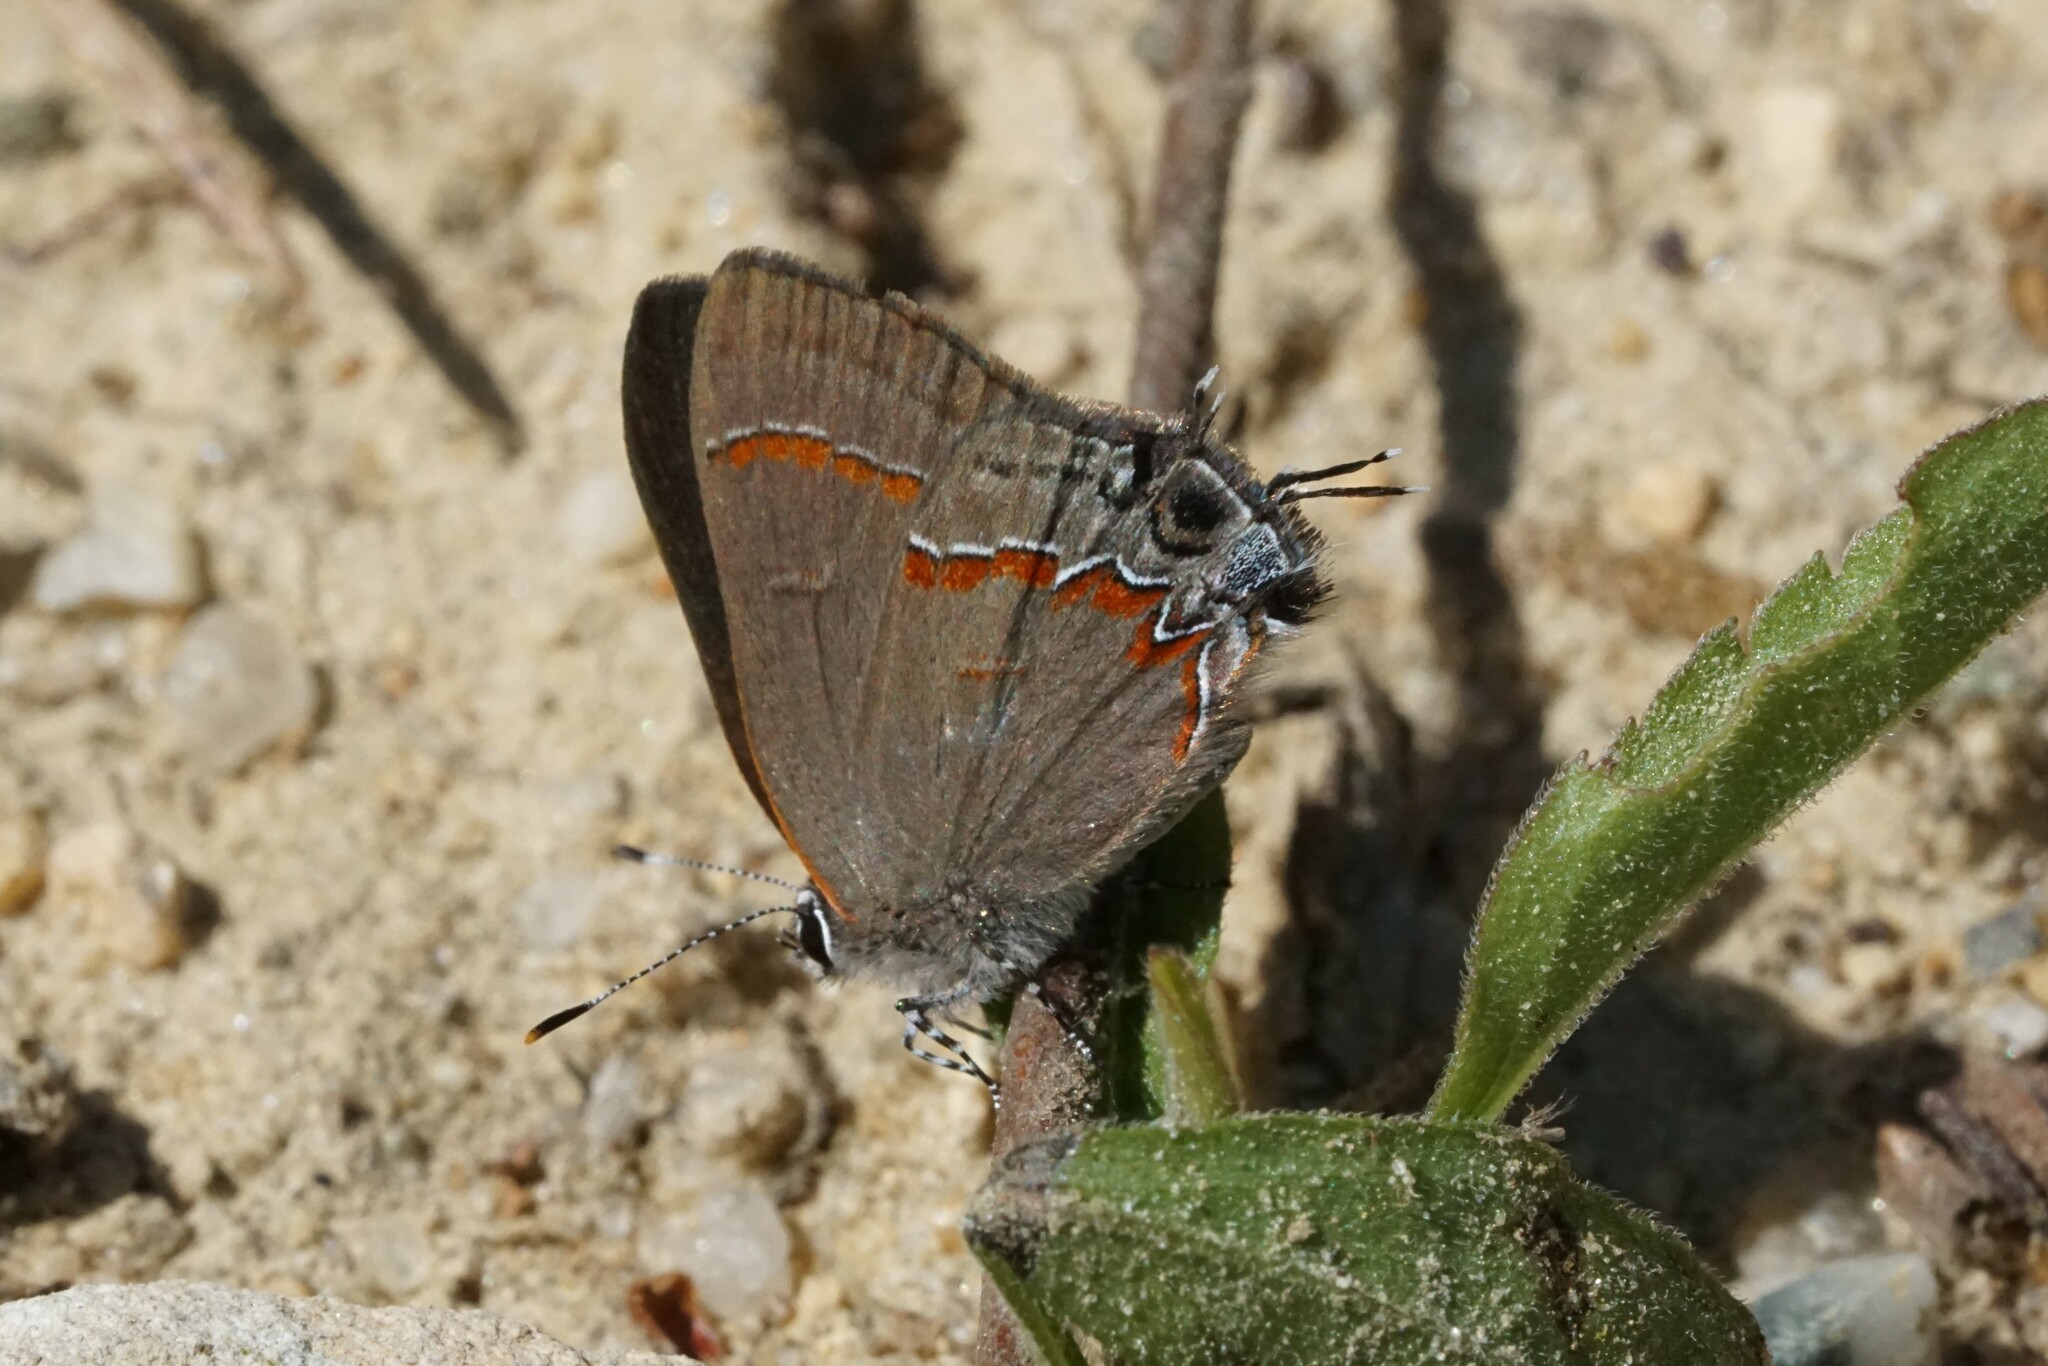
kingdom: Animalia
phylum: Arthropoda
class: Insecta
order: Lepidoptera
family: Lycaenidae
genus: Calycopis
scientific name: Calycopis cecrops
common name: Red-banded hairstreak
